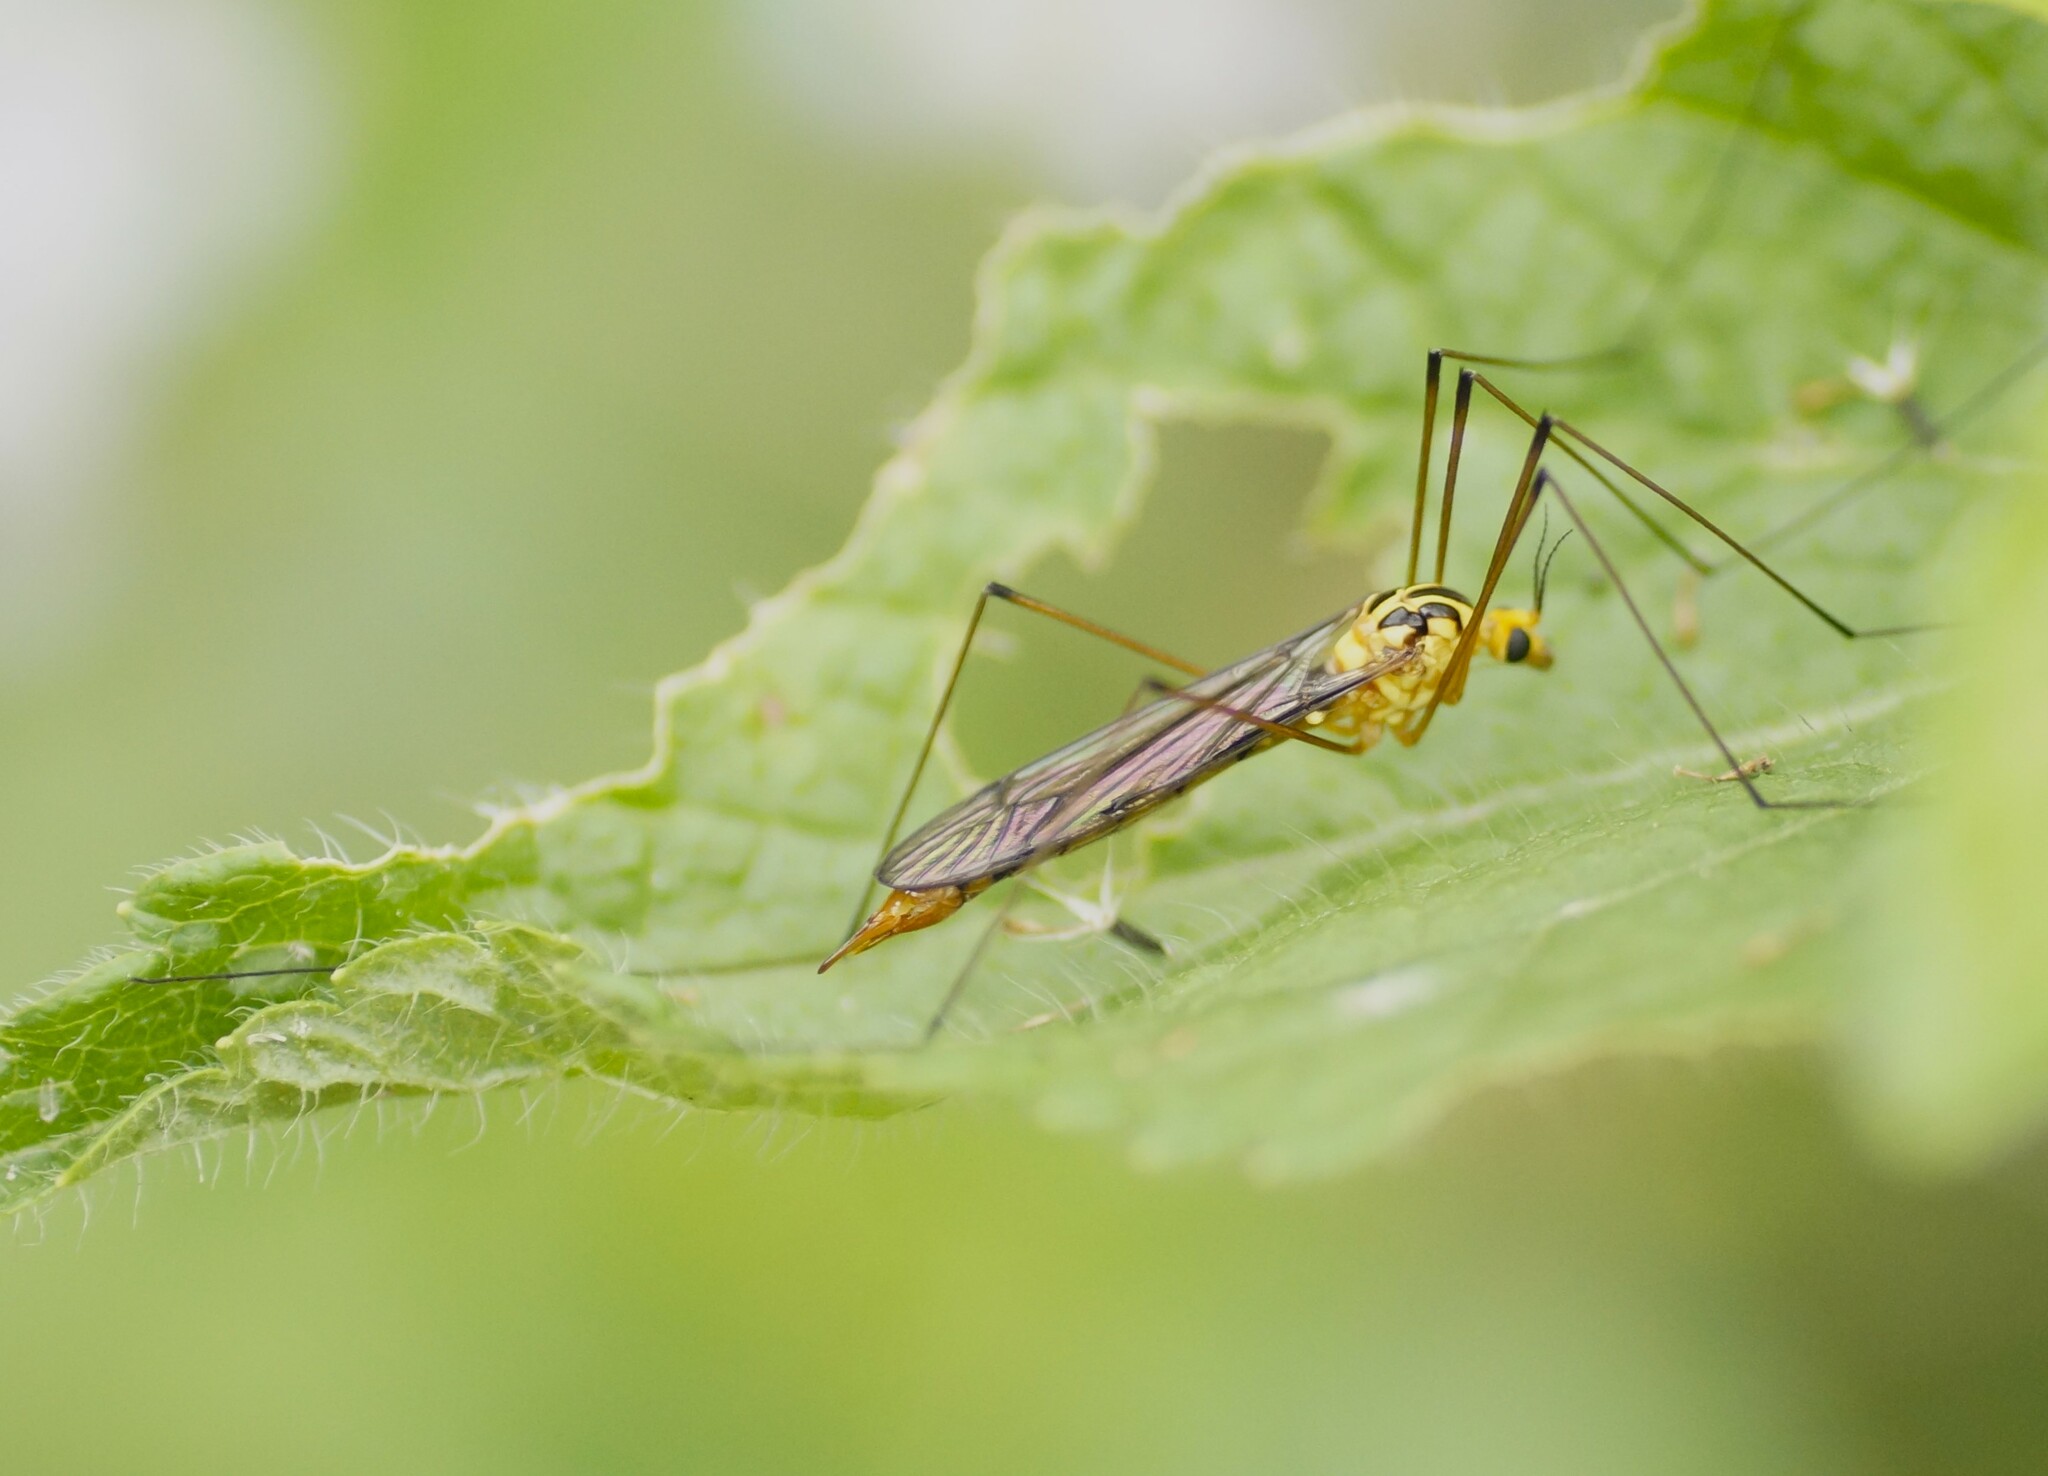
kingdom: Animalia
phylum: Arthropoda
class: Insecta
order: Diptera
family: Tipulidae
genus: Nephrotoma
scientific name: Nephrotoma australasiae
